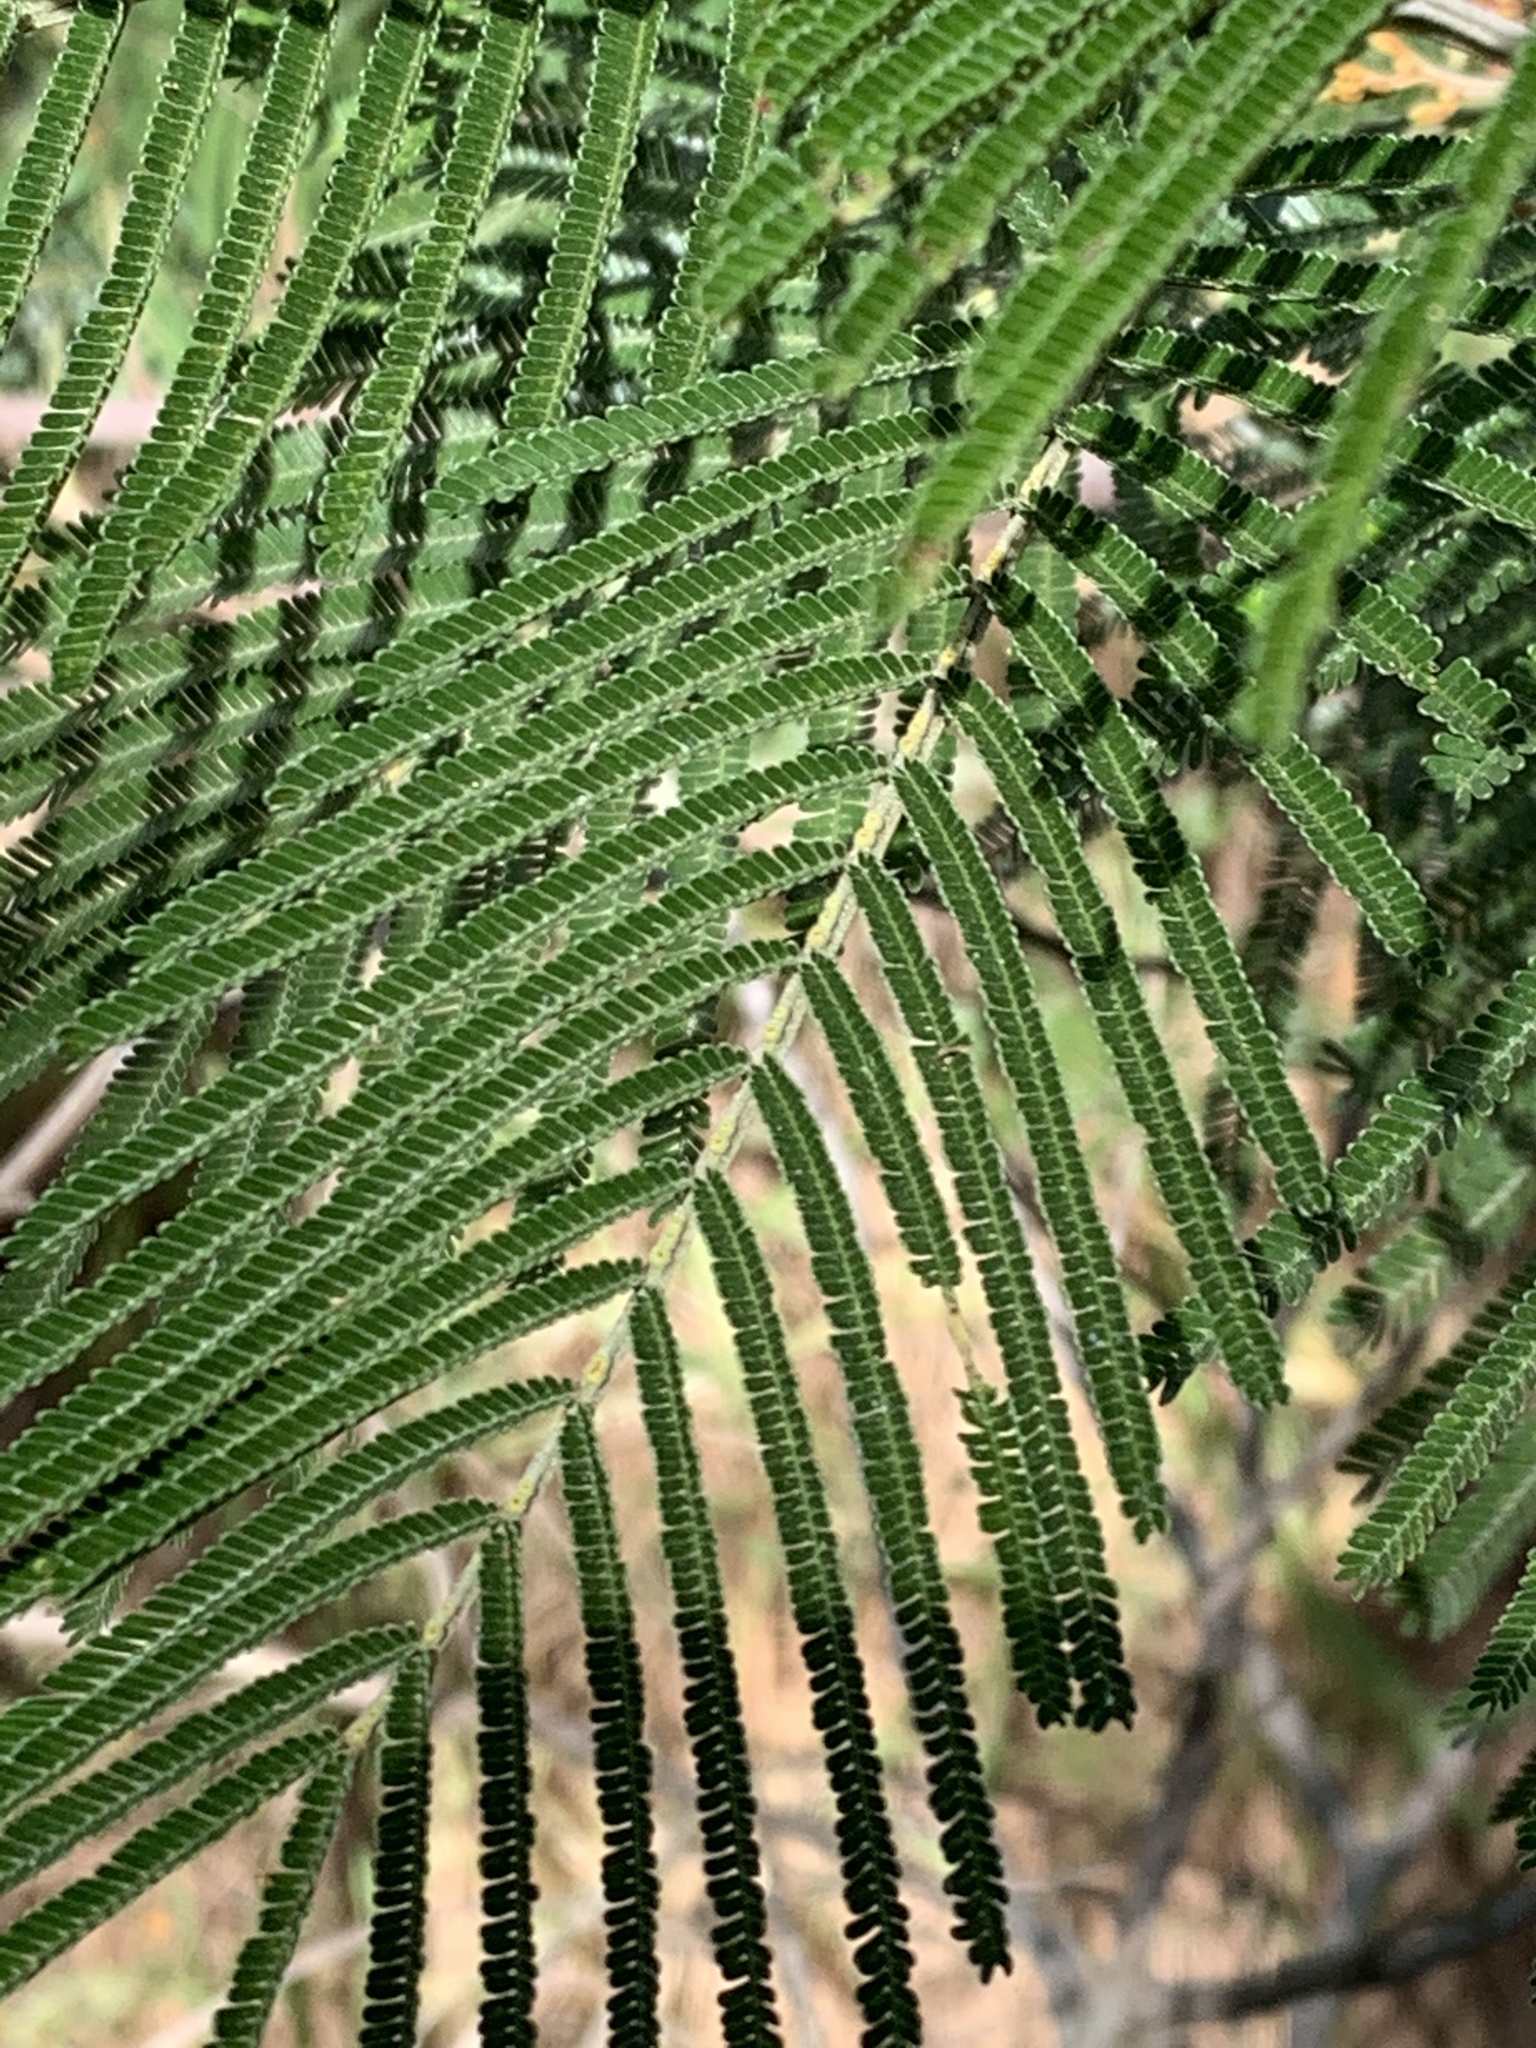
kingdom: Plantae
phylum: Tracheophyta
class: Magnoliopsida
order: Fabales
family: Fabaceae
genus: Acacia
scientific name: Acacia mearnsii
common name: Black wattle
